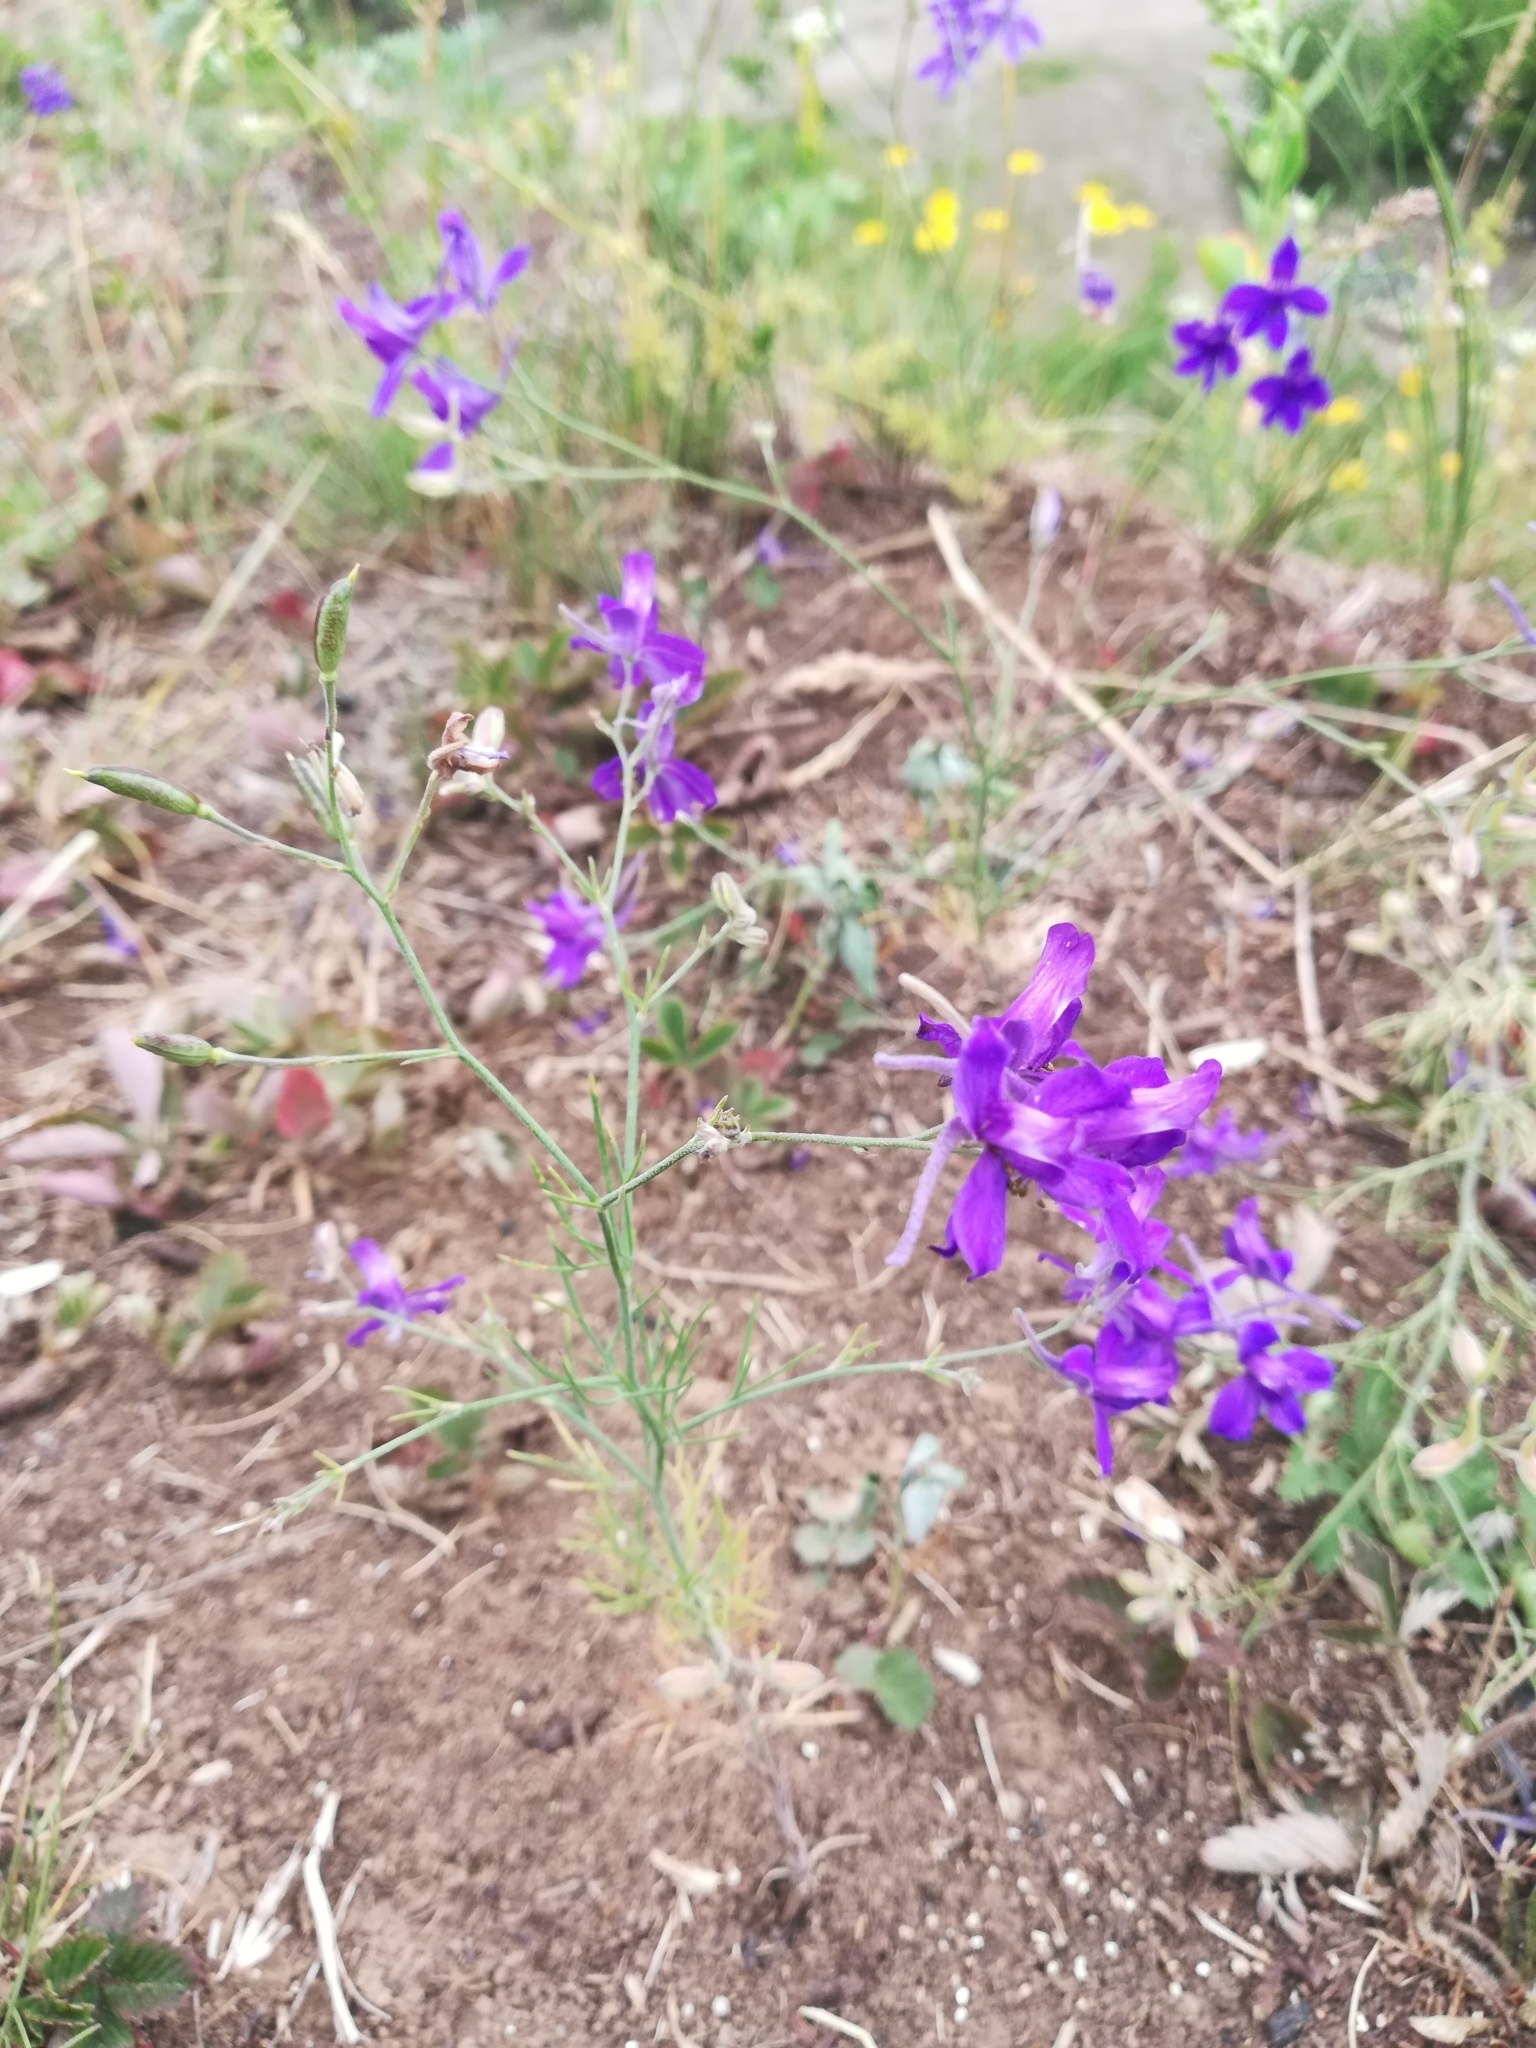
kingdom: Plantae
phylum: Tracheophyta
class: Magnoliopsida
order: Ranunculales
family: Ranunculaceae
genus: Delphinium
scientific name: Delphinium consolida
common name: Branching larkspur
